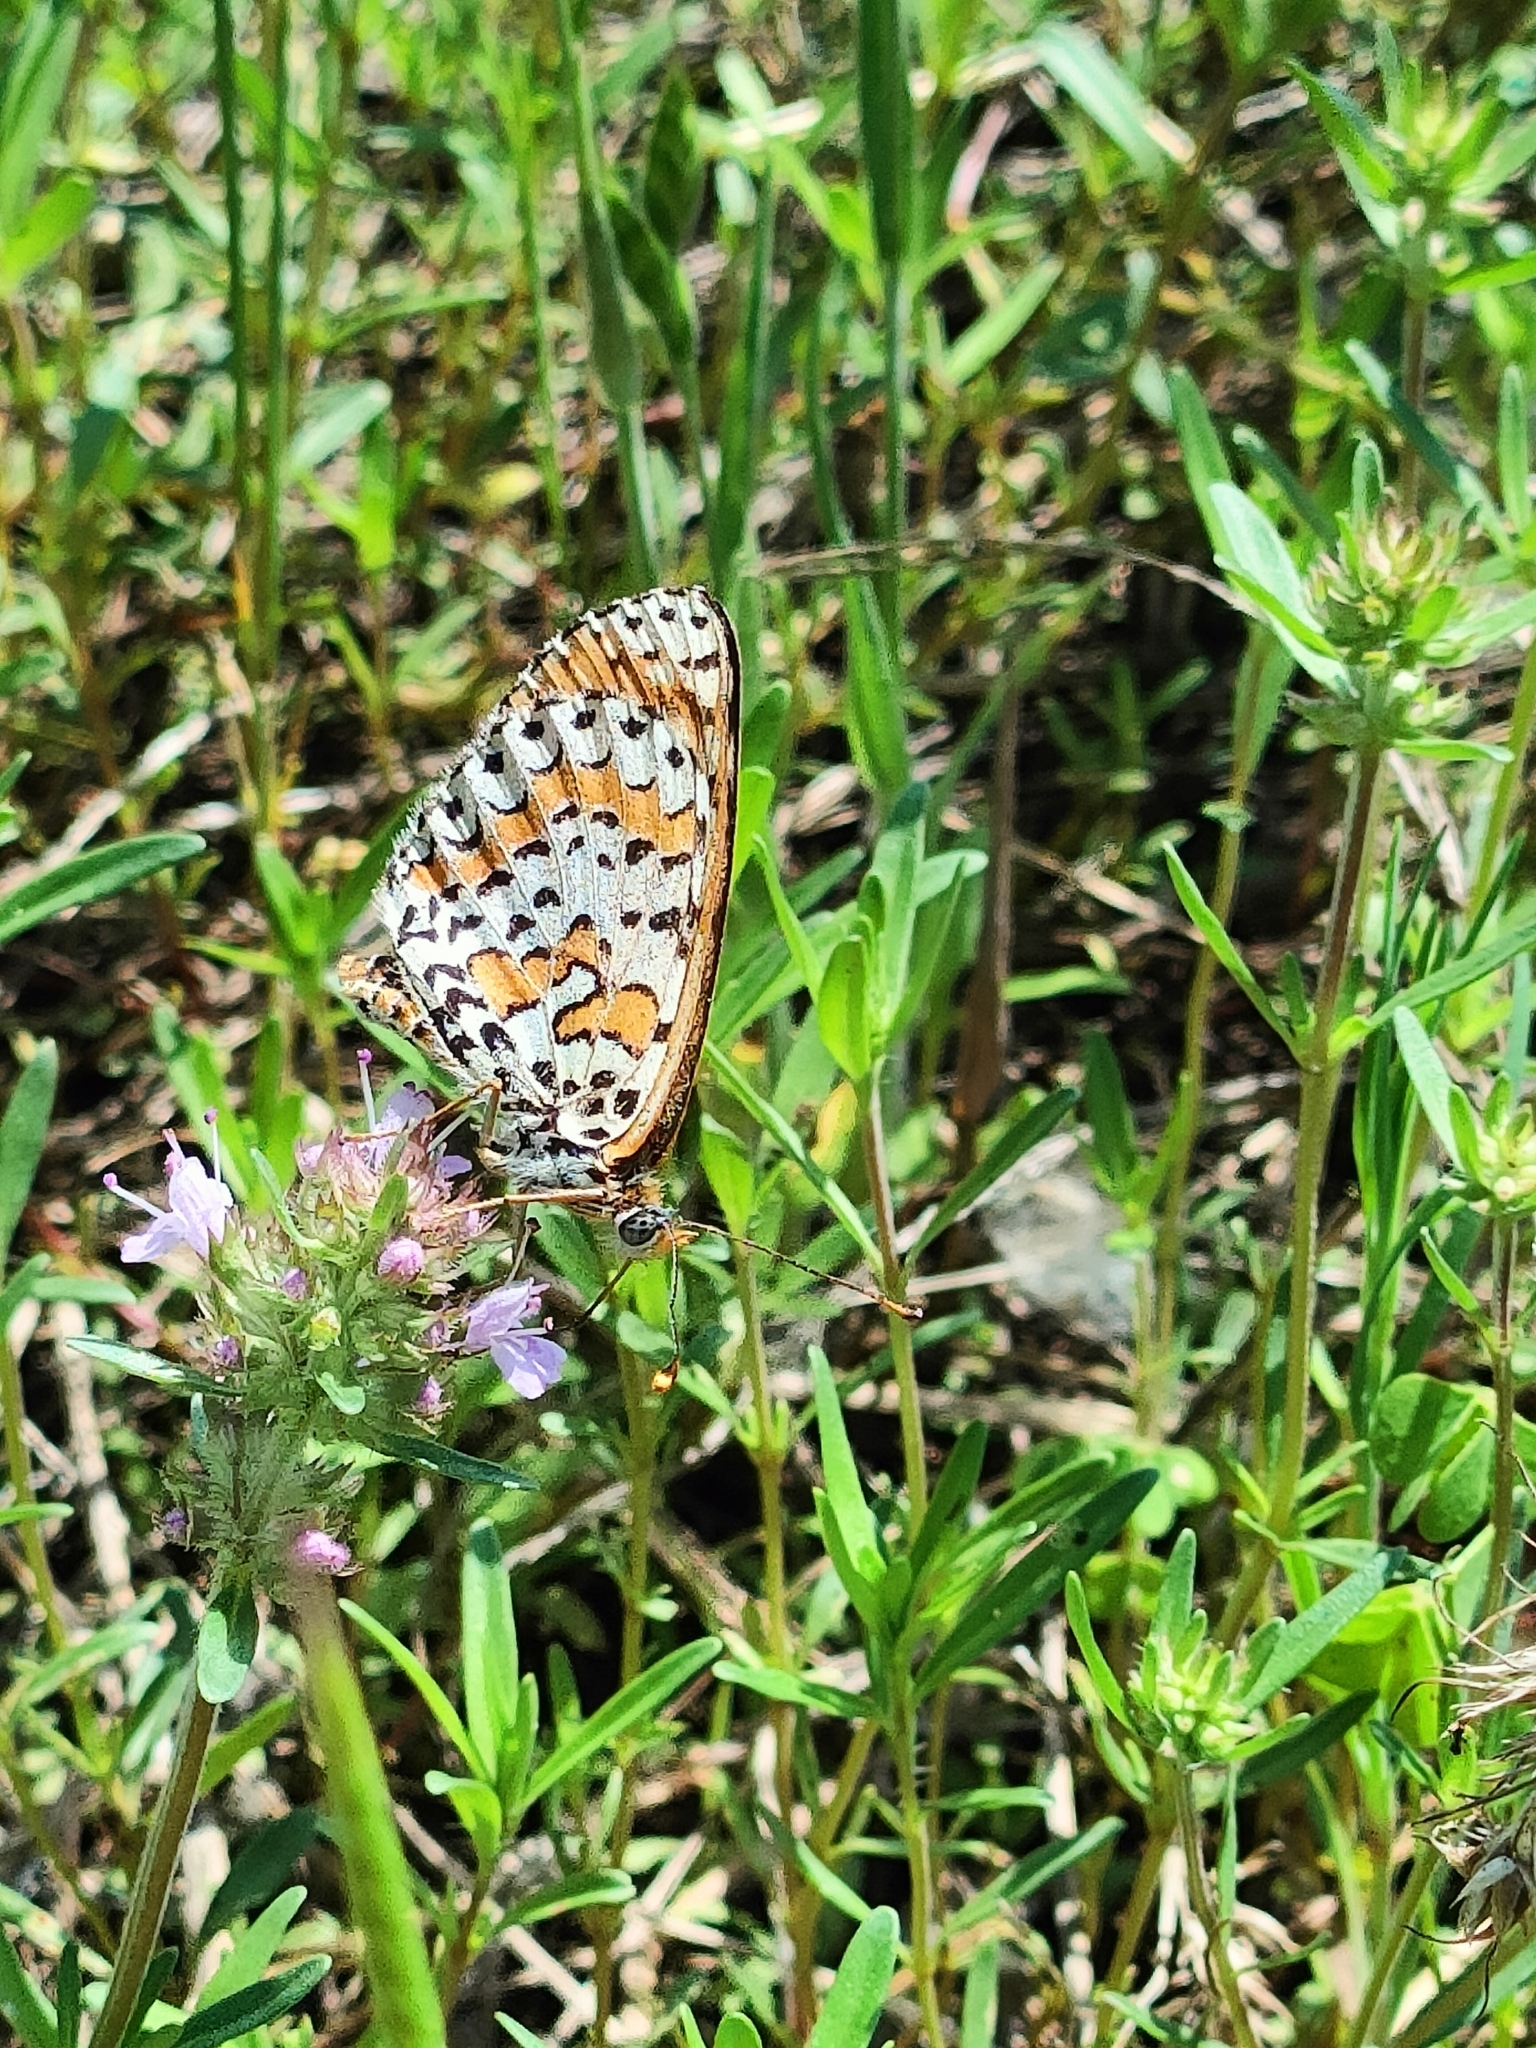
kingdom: Animalia
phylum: Arthropoda
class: Insecta
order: Lepidoptera
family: Nymphalidae
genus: Melitaea
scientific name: Melitaea didyma
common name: Spotted fritillary
